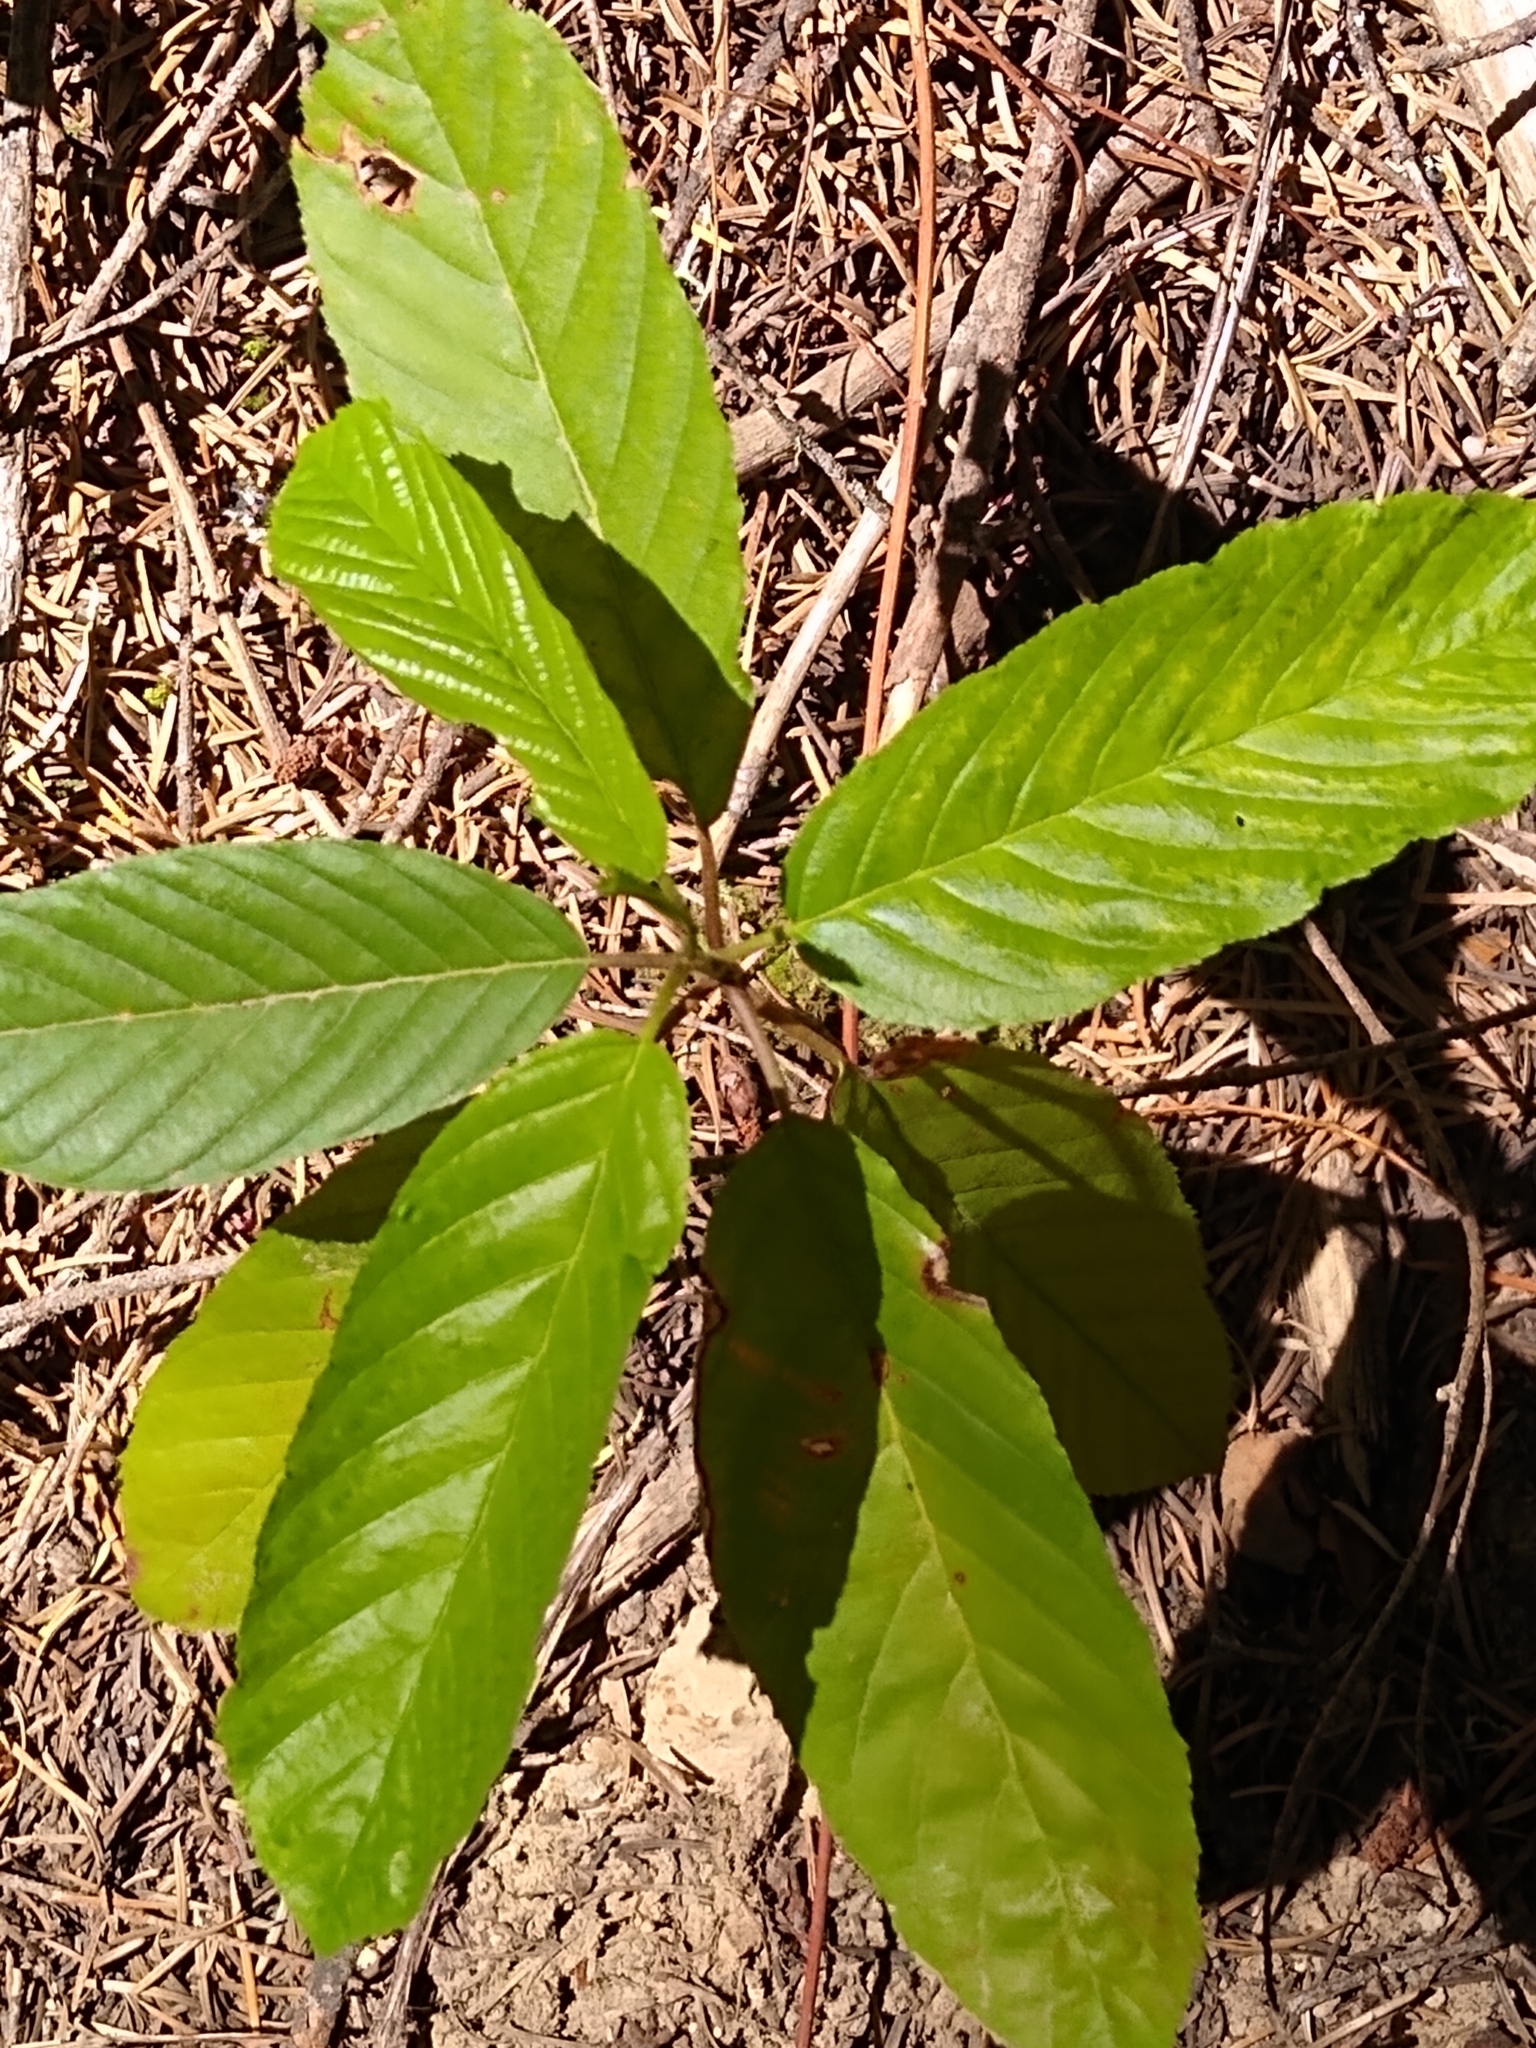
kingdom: Plantae
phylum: Tracheophyta
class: Magnoliopsida
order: Rosales
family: Rhamnaceae
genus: Frangula
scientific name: Frangula purshiana
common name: Cascara buckthorn
